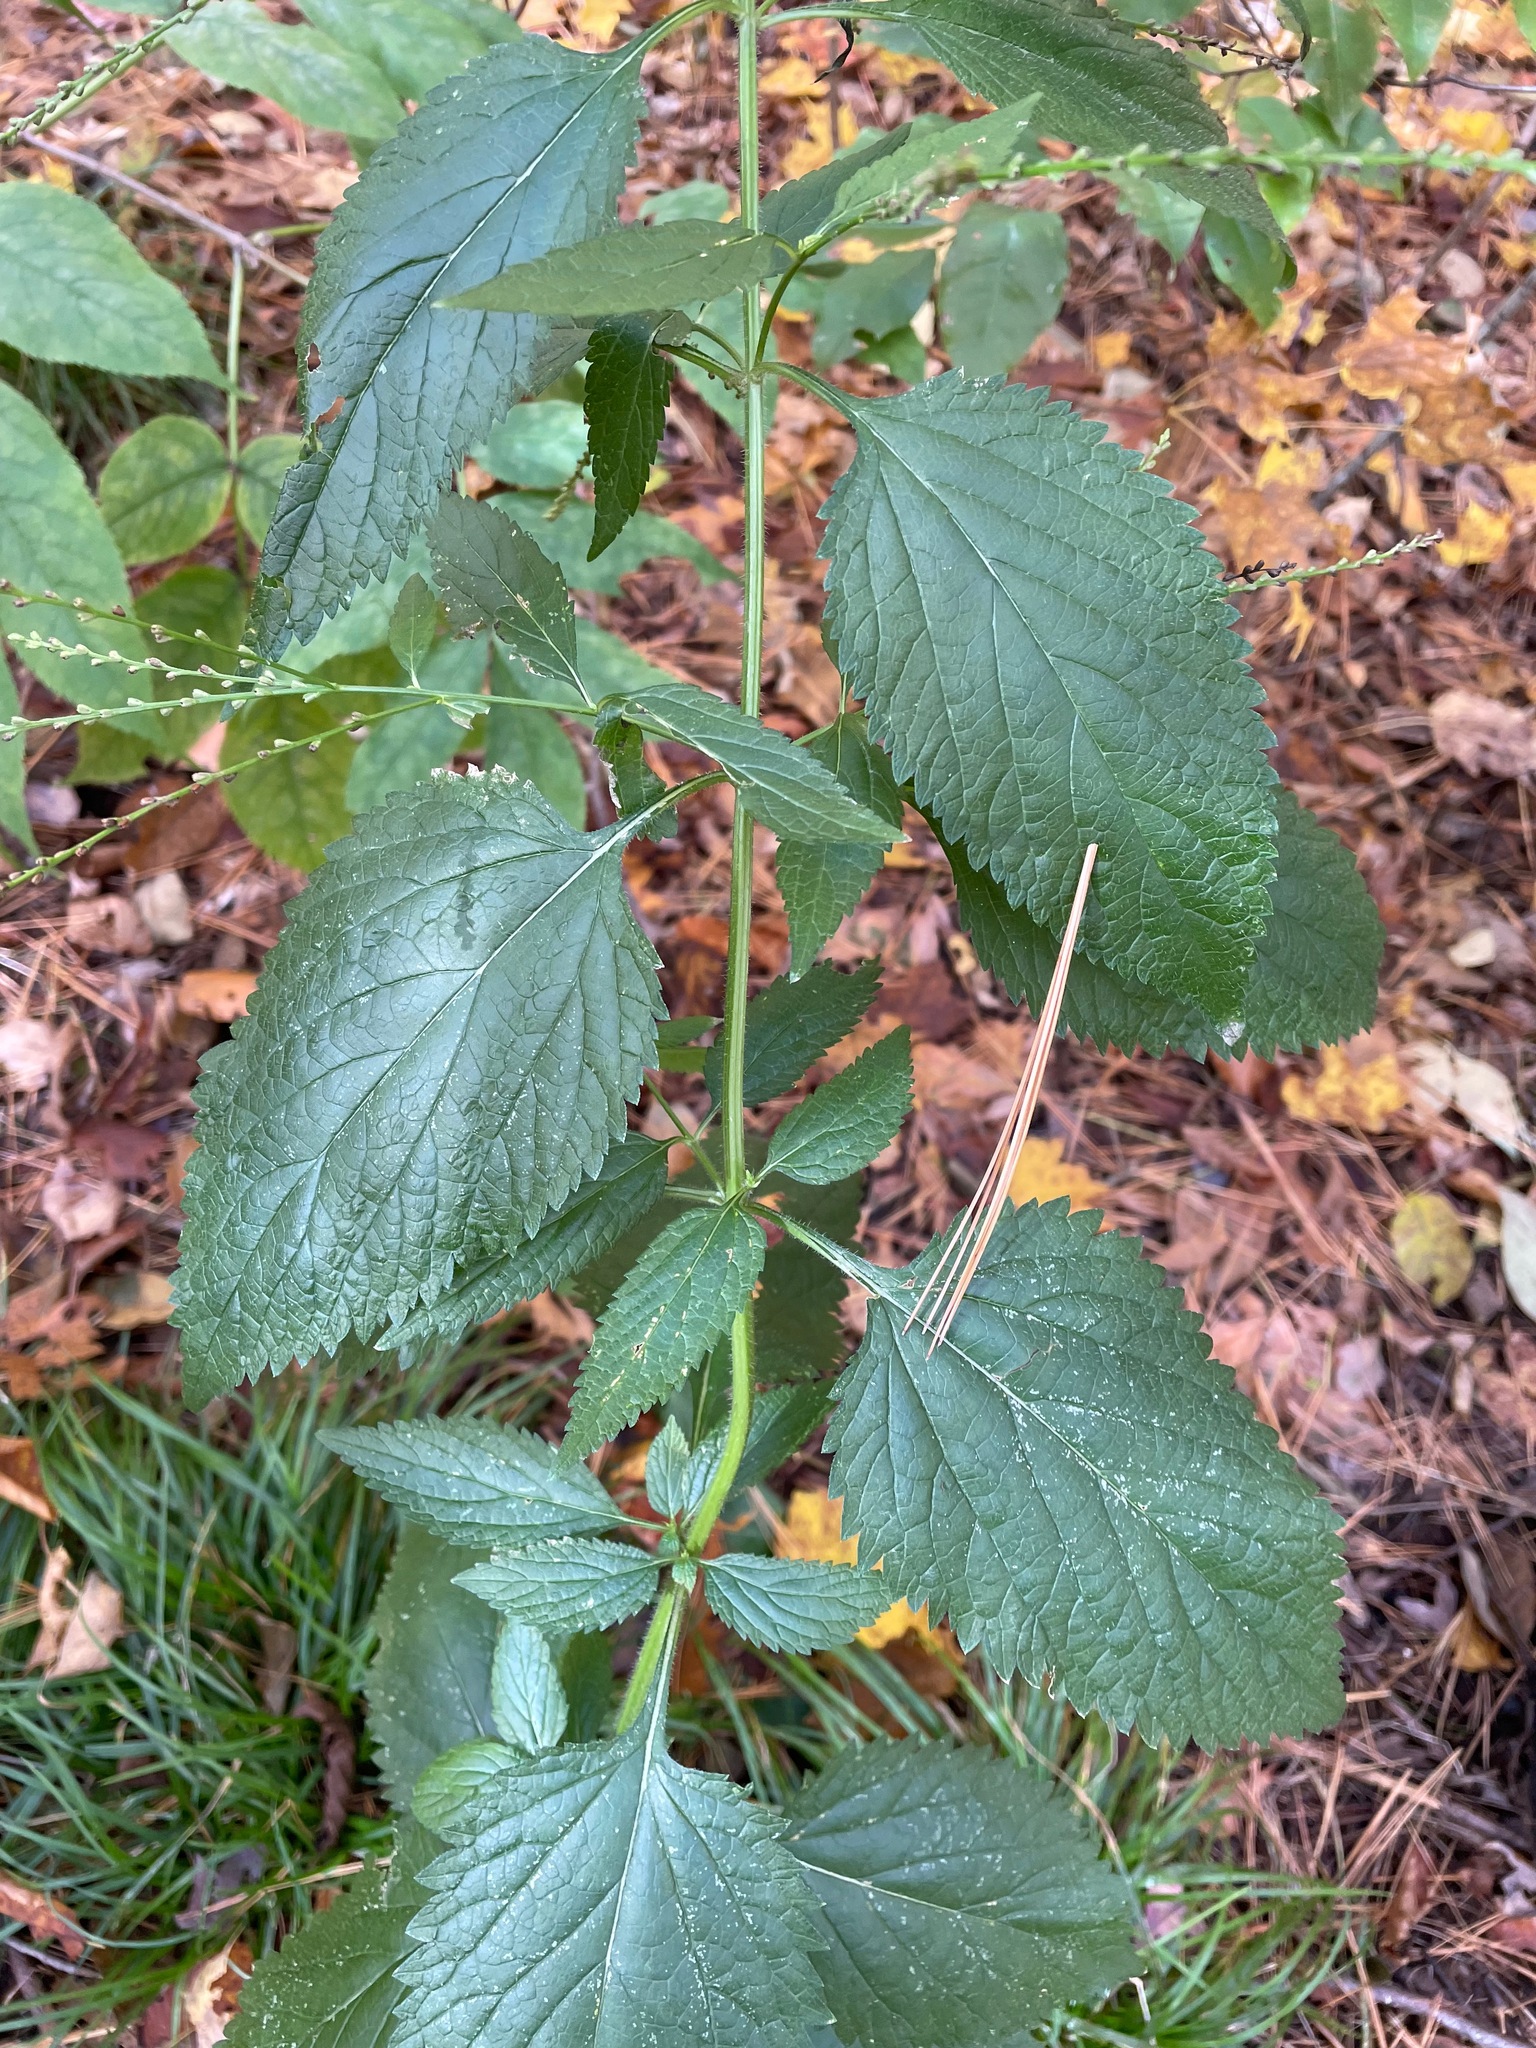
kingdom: Plantae
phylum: Tracheophyta
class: Magnoliopsida
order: Lamiales
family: Verbenaceae
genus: Verbena
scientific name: Verbena urticifolia
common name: Nettle-leaved vervain
